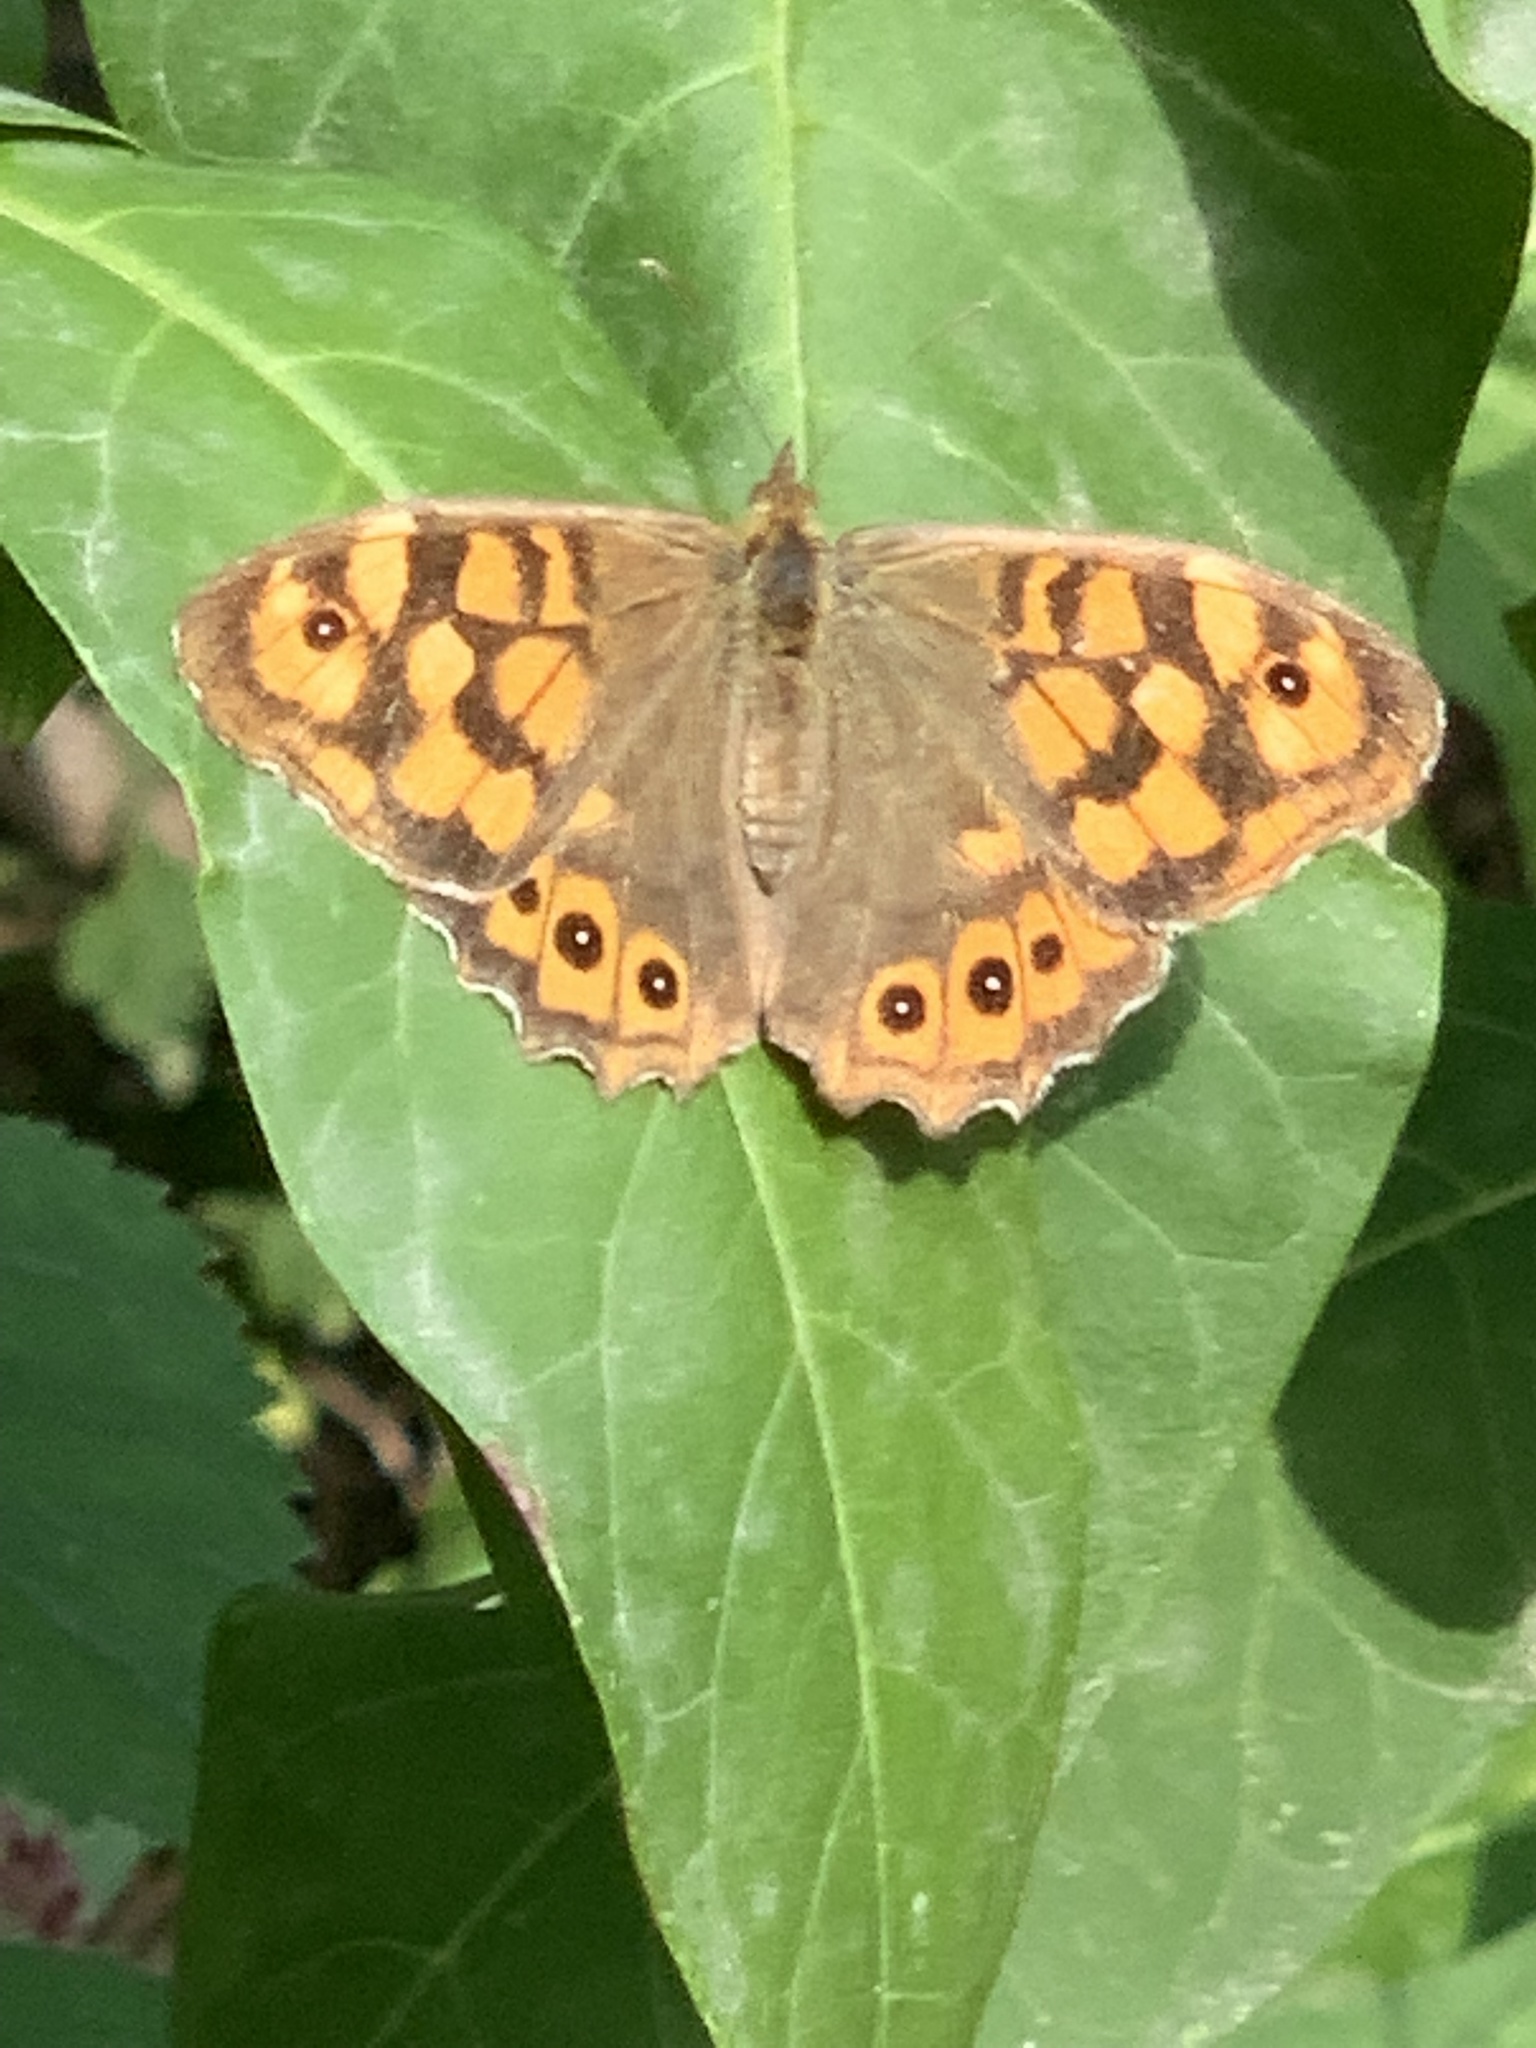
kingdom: Animalia
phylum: Arthropoda
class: Insecta
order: Lepidoptera
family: Nymphalidae
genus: Pararge
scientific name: Pararge aegeria
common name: Speckled wood
